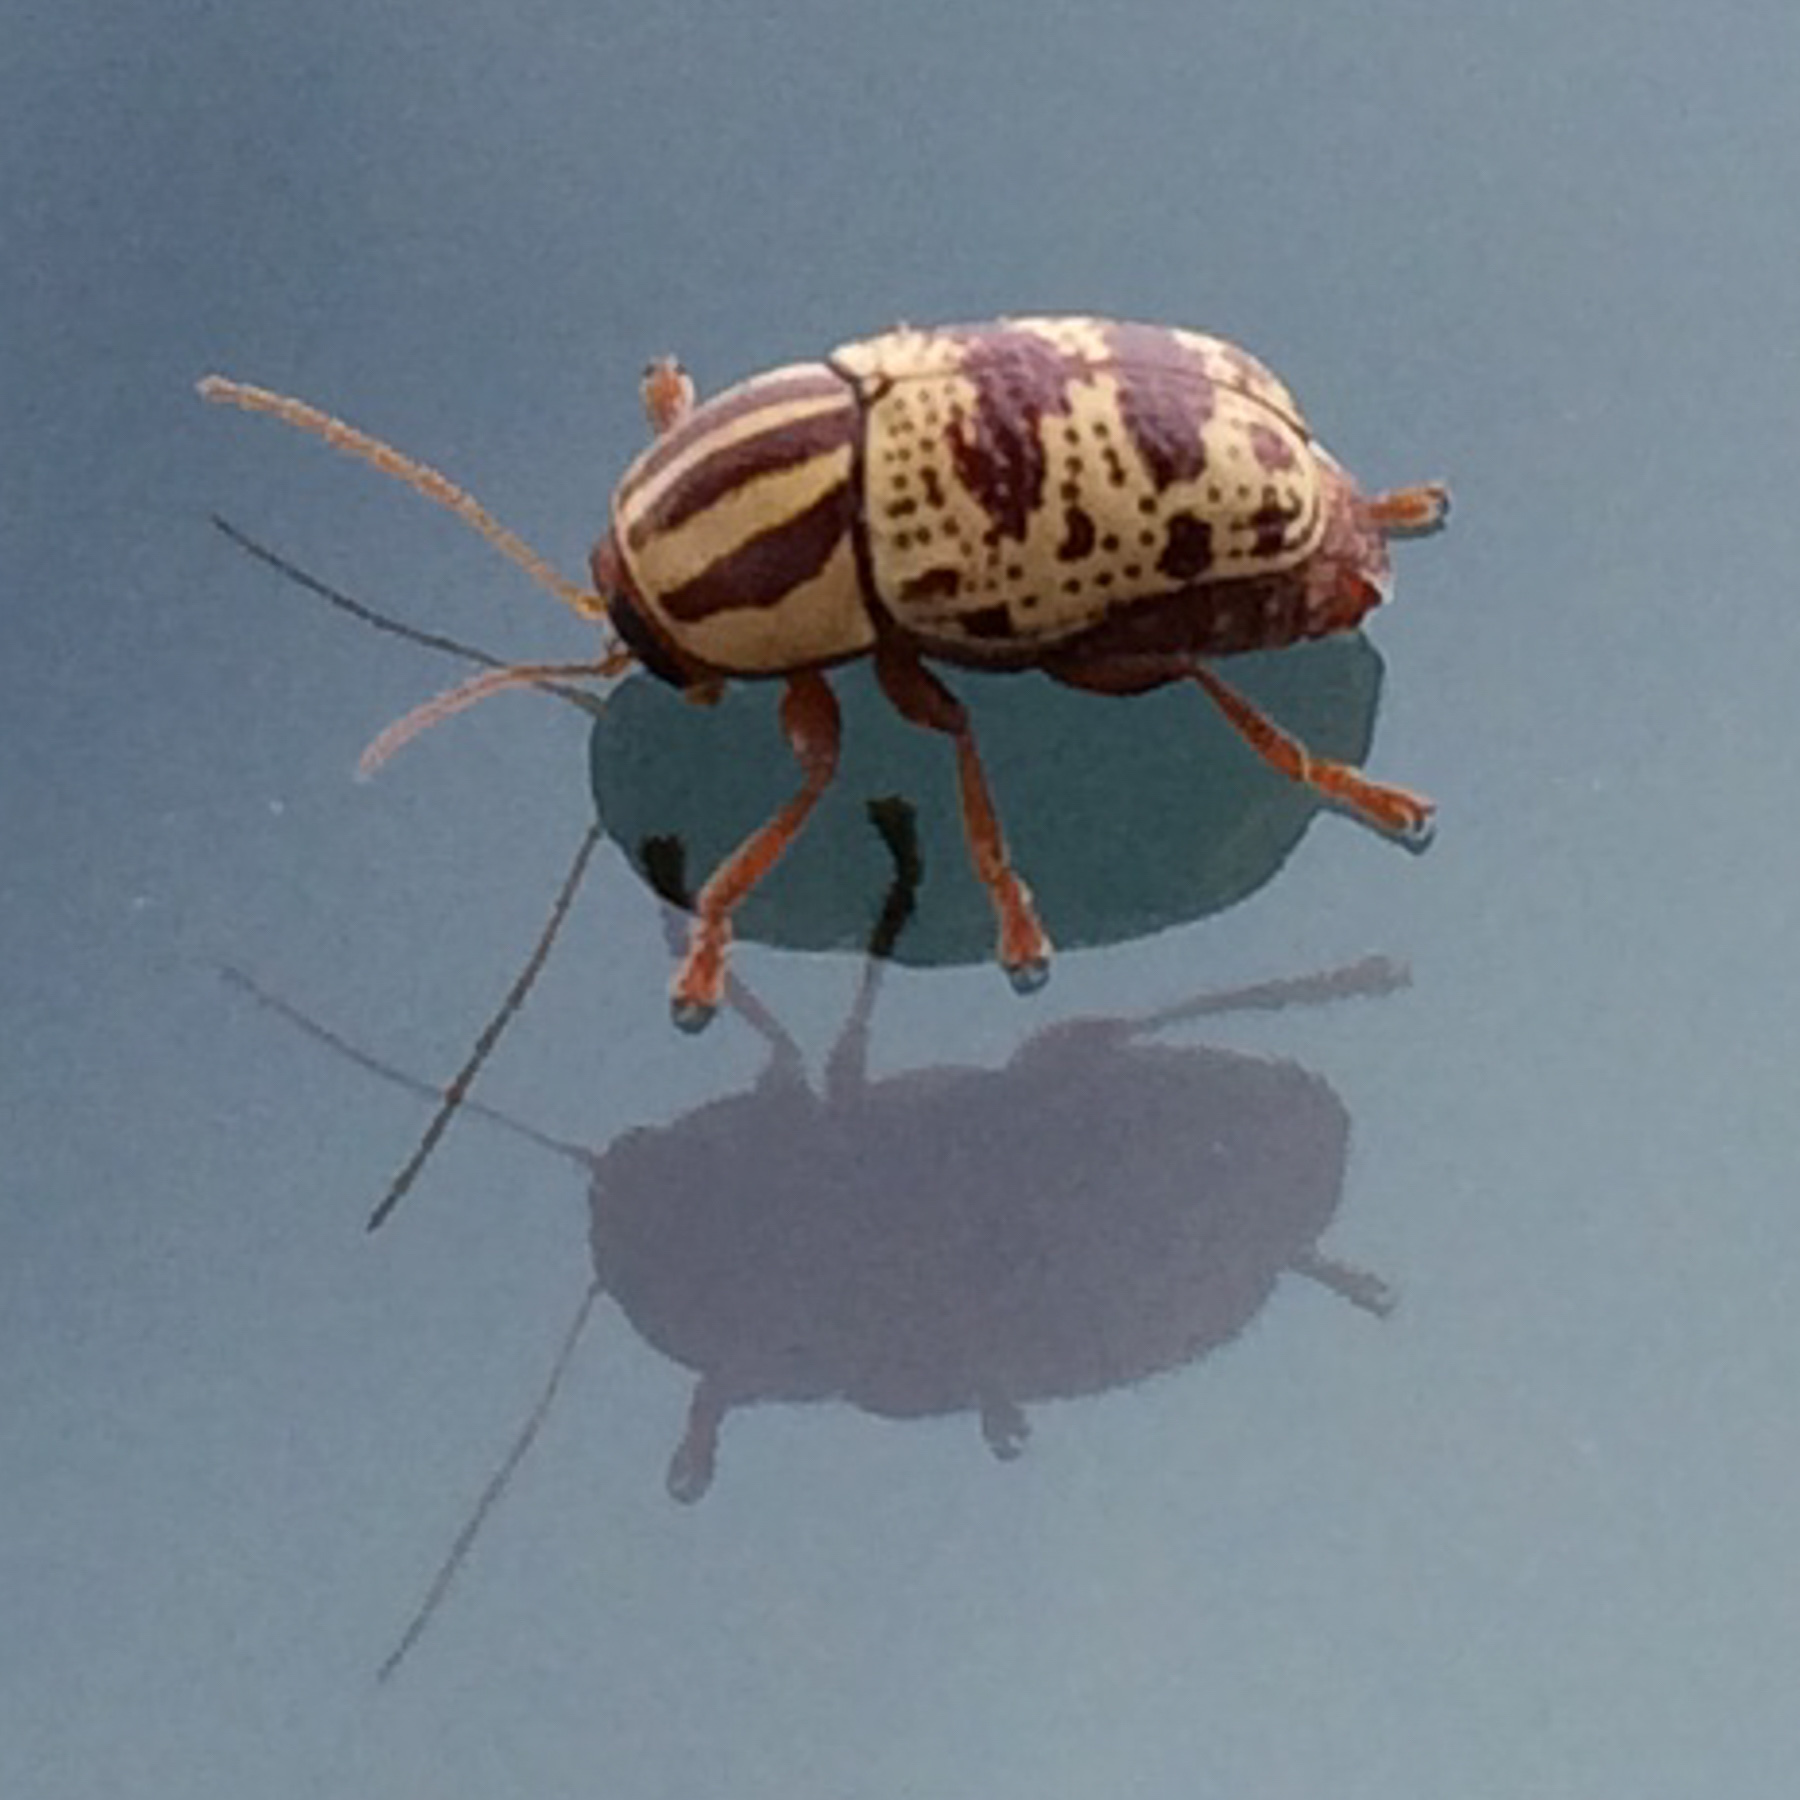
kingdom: Animalia
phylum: Arthropoda
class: Insecta
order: Coleoptera
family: Chrysomelidae
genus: Cryptocephalus
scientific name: Cryptocephalus leucomelas
